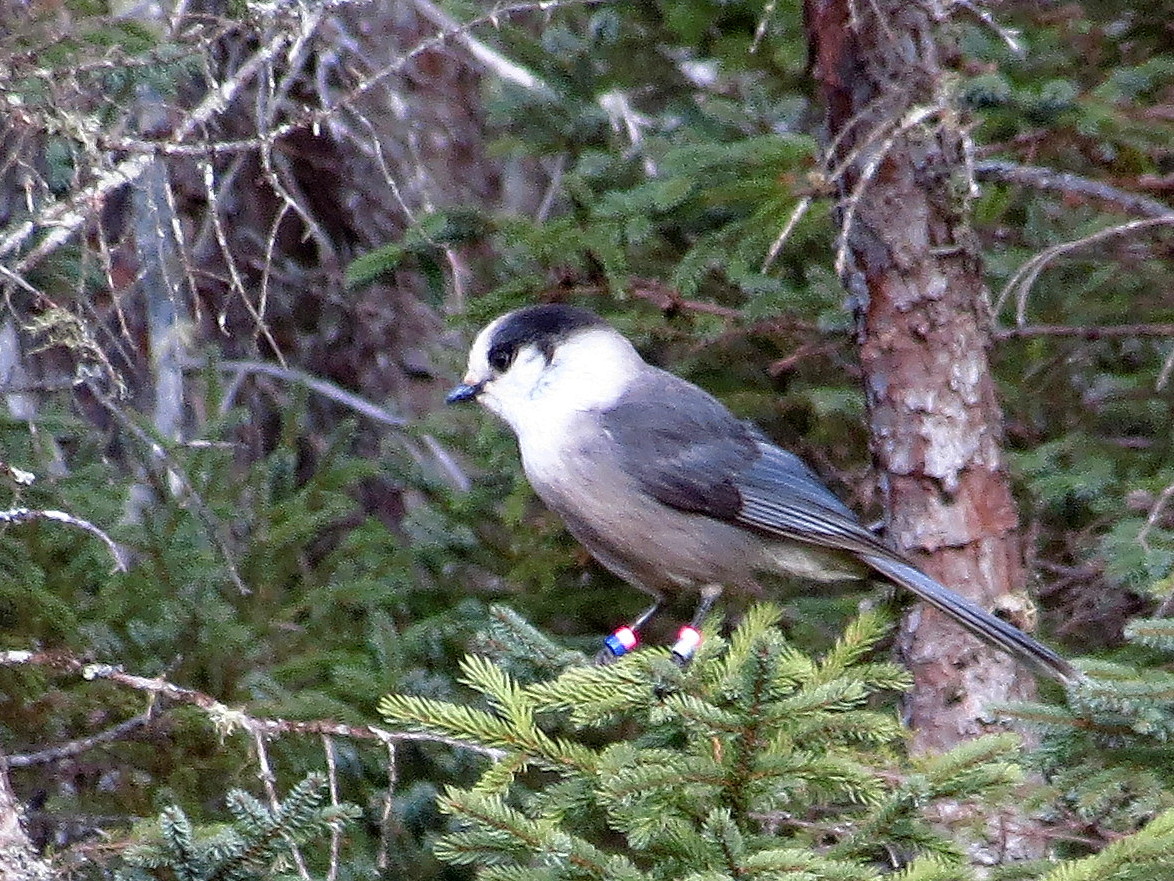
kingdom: Animalia
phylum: Chordata
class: Aves
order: Passeriformes
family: Corvidae
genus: Perisoreus
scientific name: Perisoreus canadensis
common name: Gray jay
